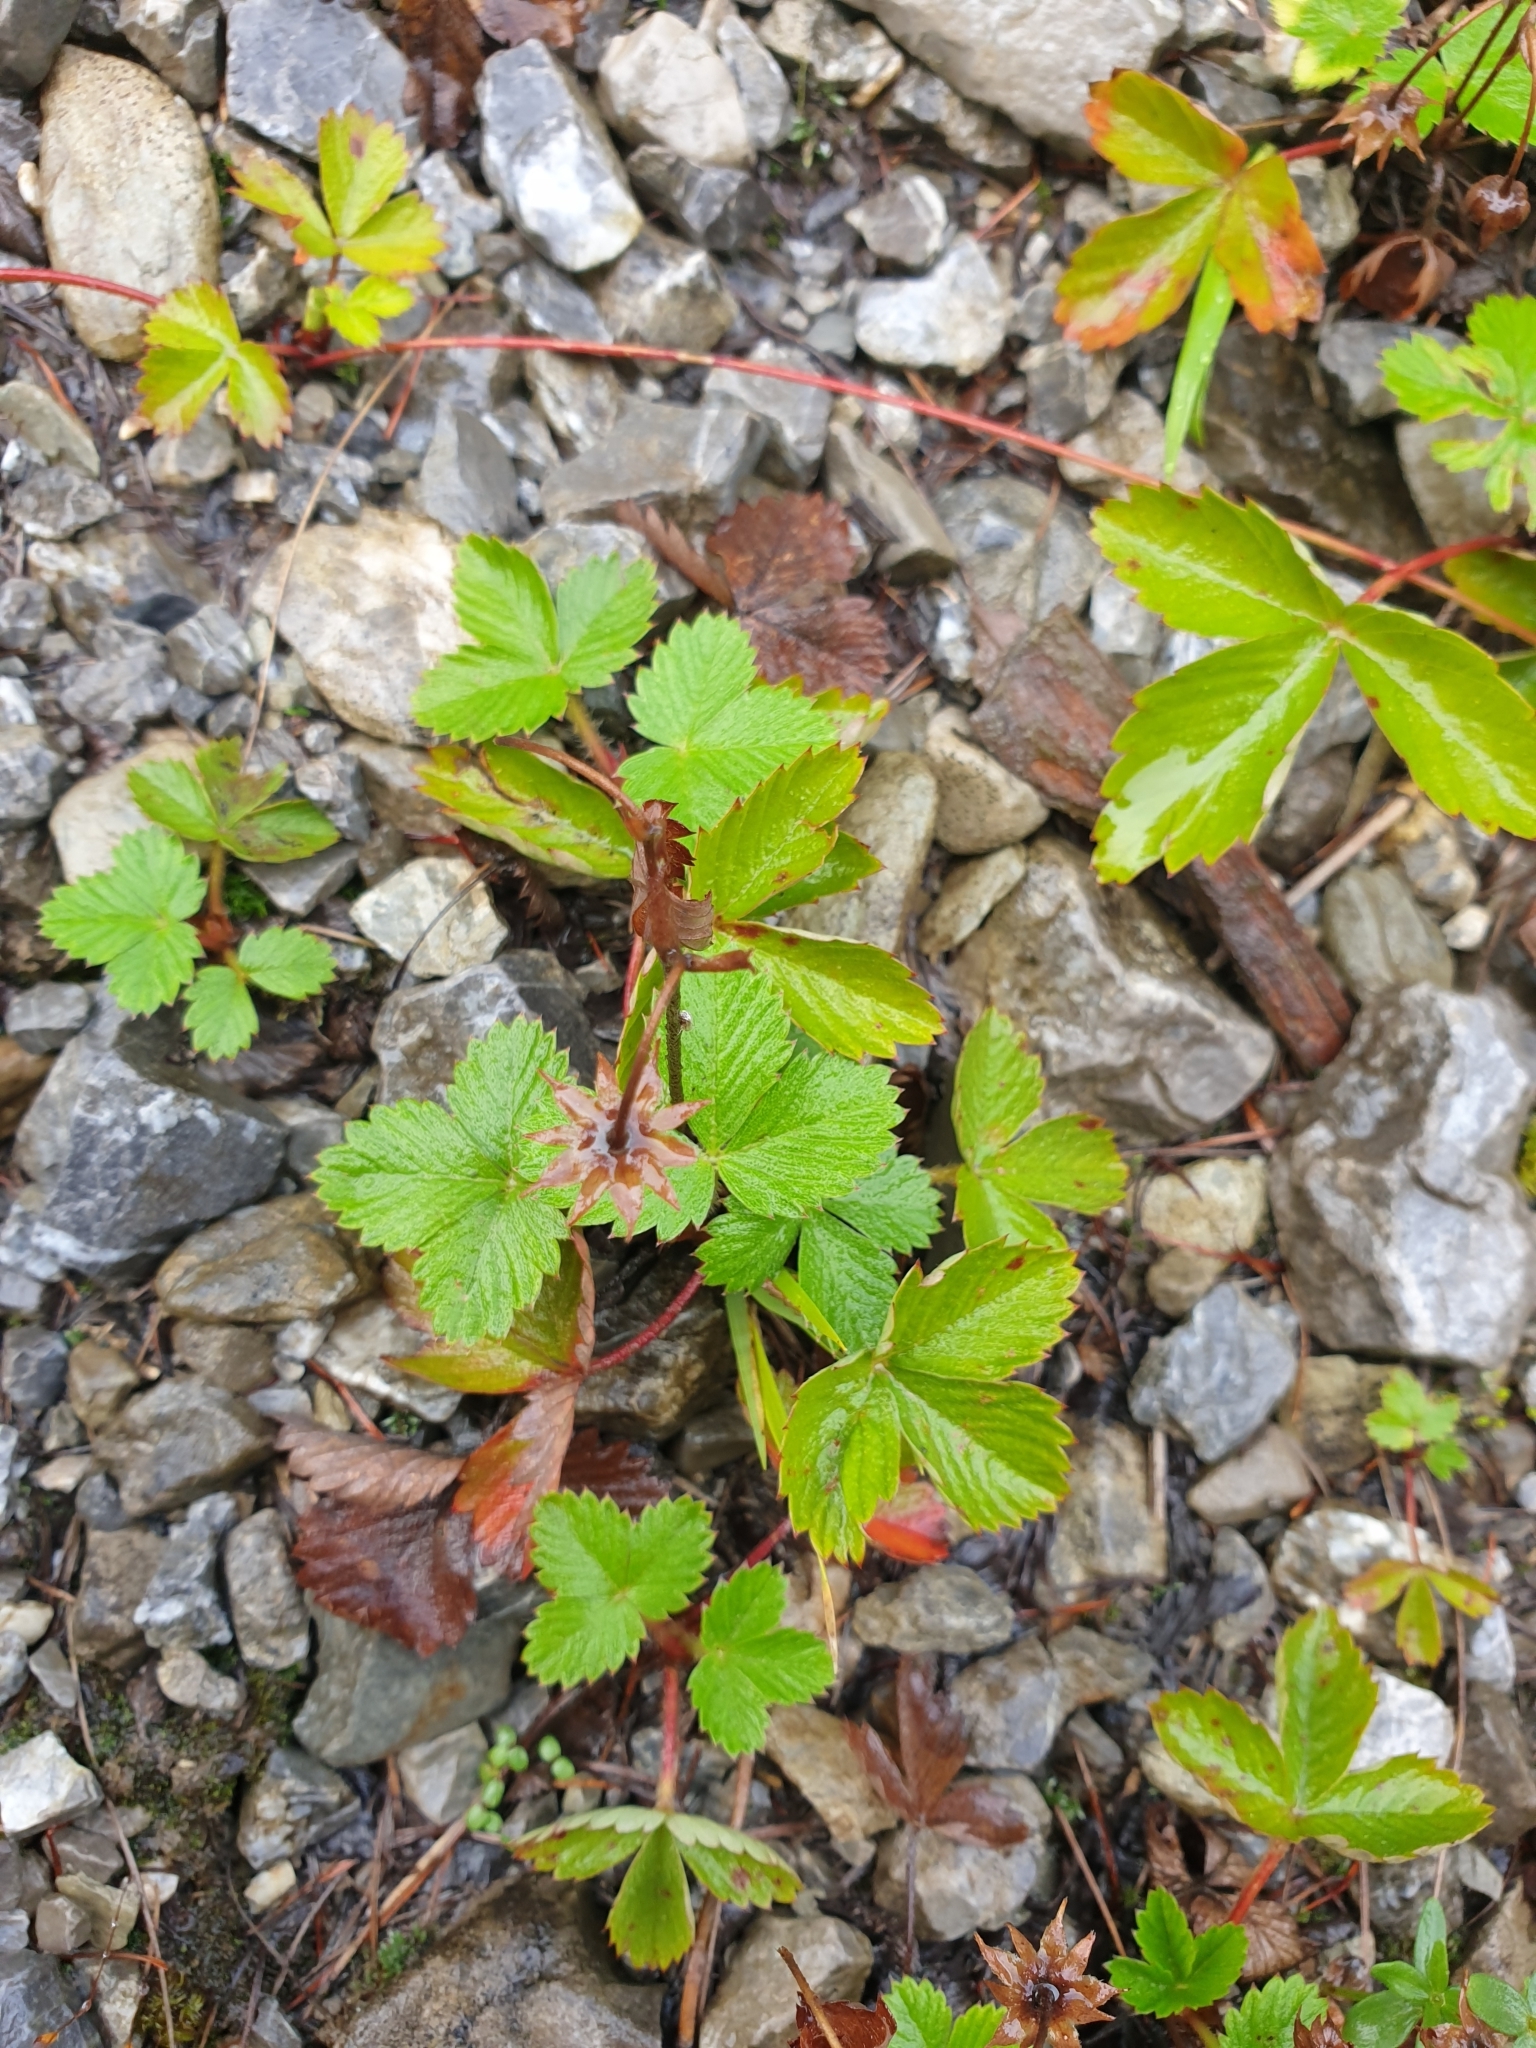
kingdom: Plantae
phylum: Tracheophyta
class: Magnoliopsida
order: Rosales
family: Rosaceae
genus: Fragaria
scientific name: Fragaria vesca
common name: Wild strawberry
